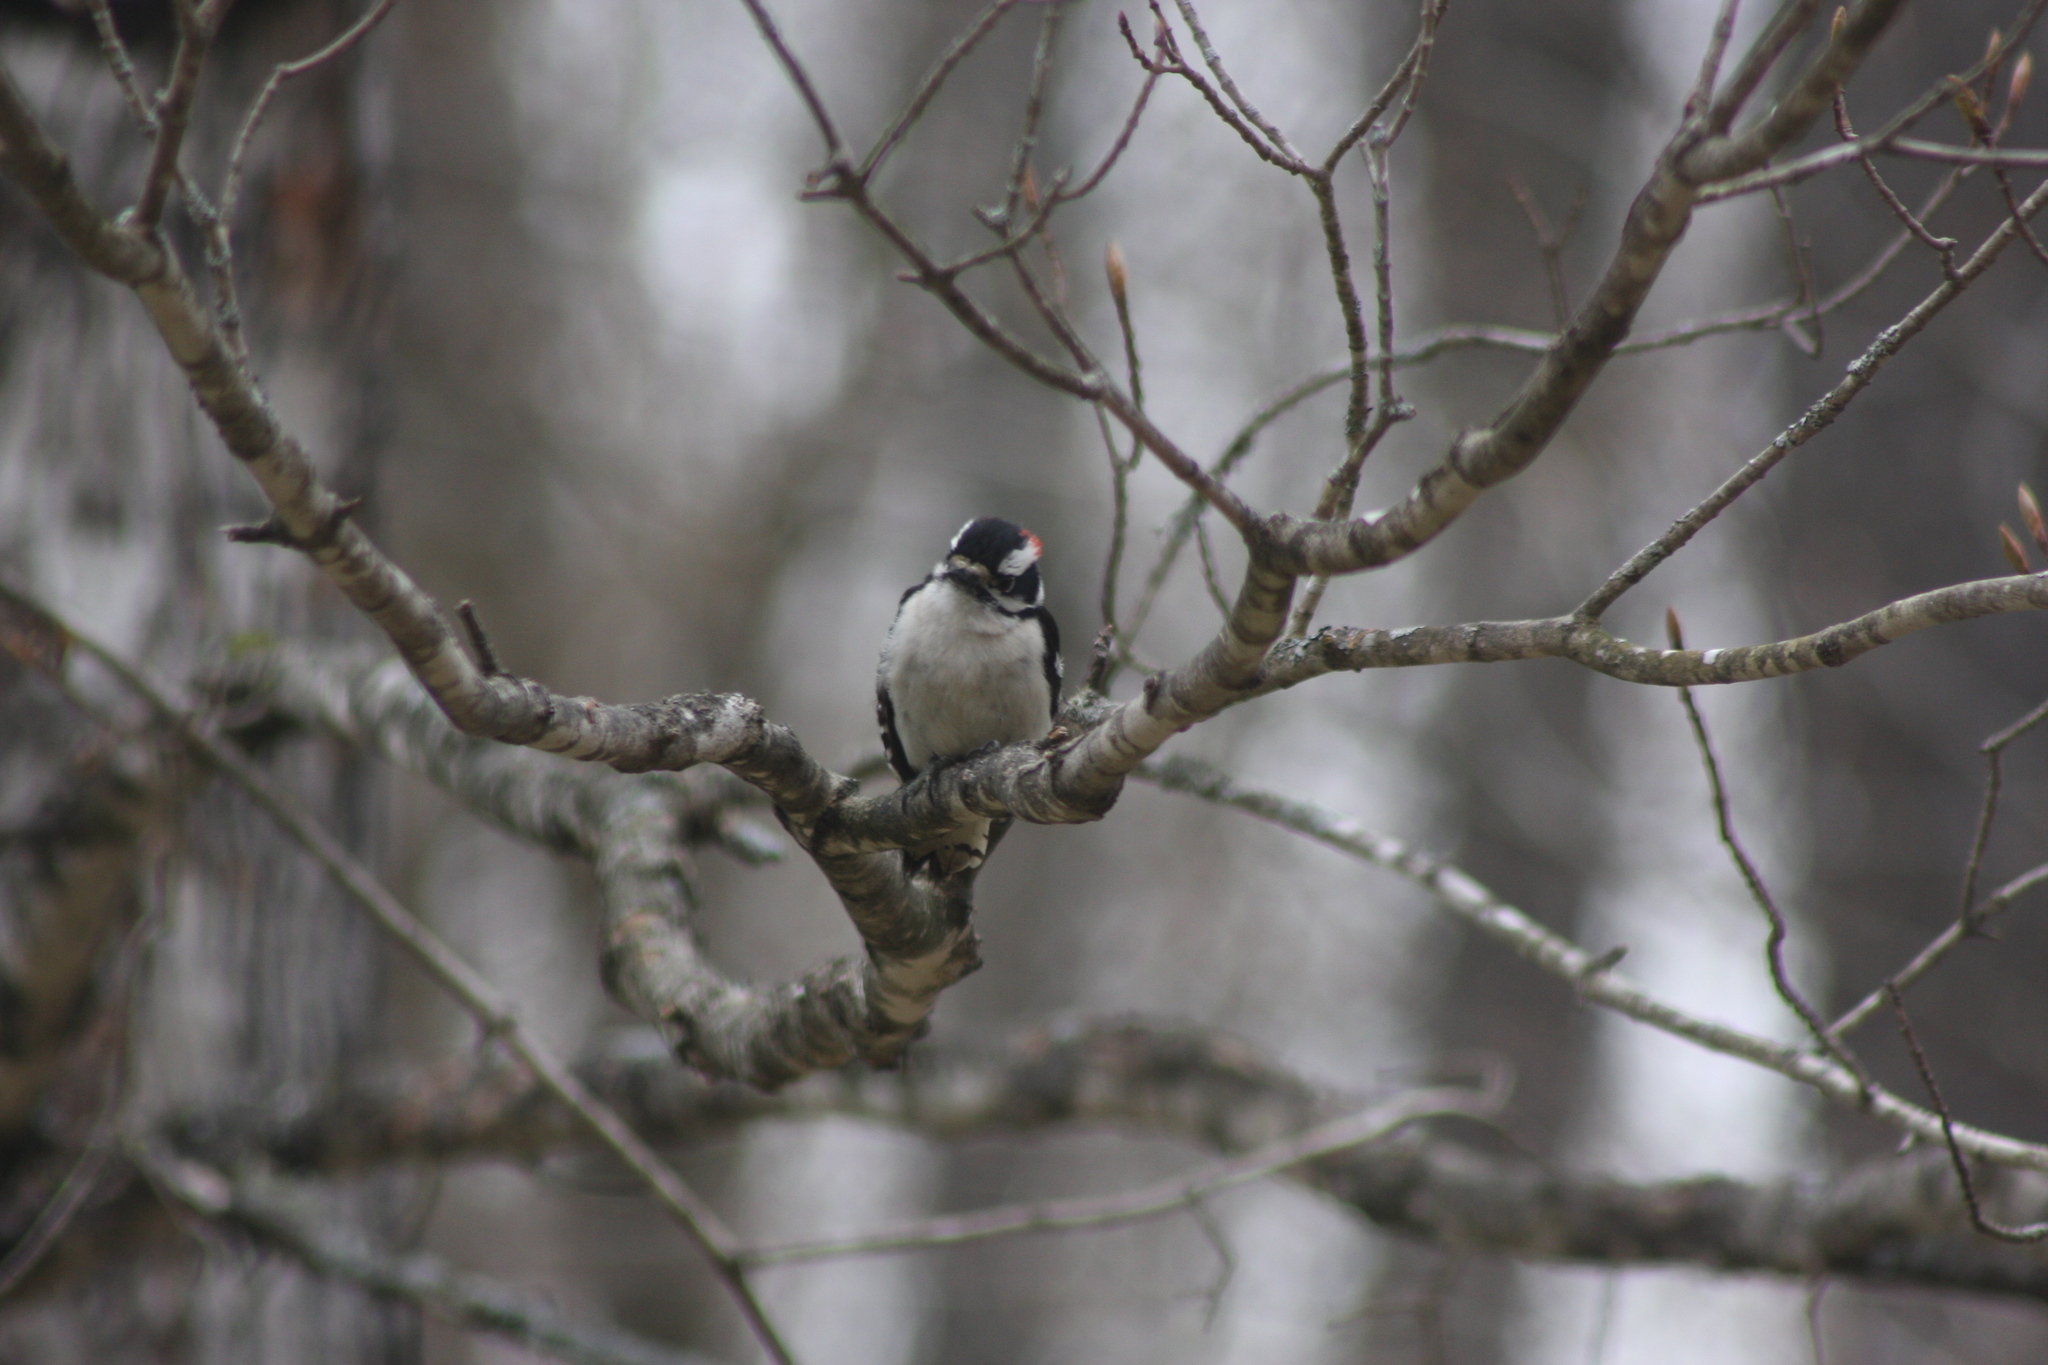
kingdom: Animalia
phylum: Chordata
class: Aves
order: Piciformes
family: Picidae
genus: Dryobates
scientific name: Dryobates pubescens
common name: Downy woodpecker
